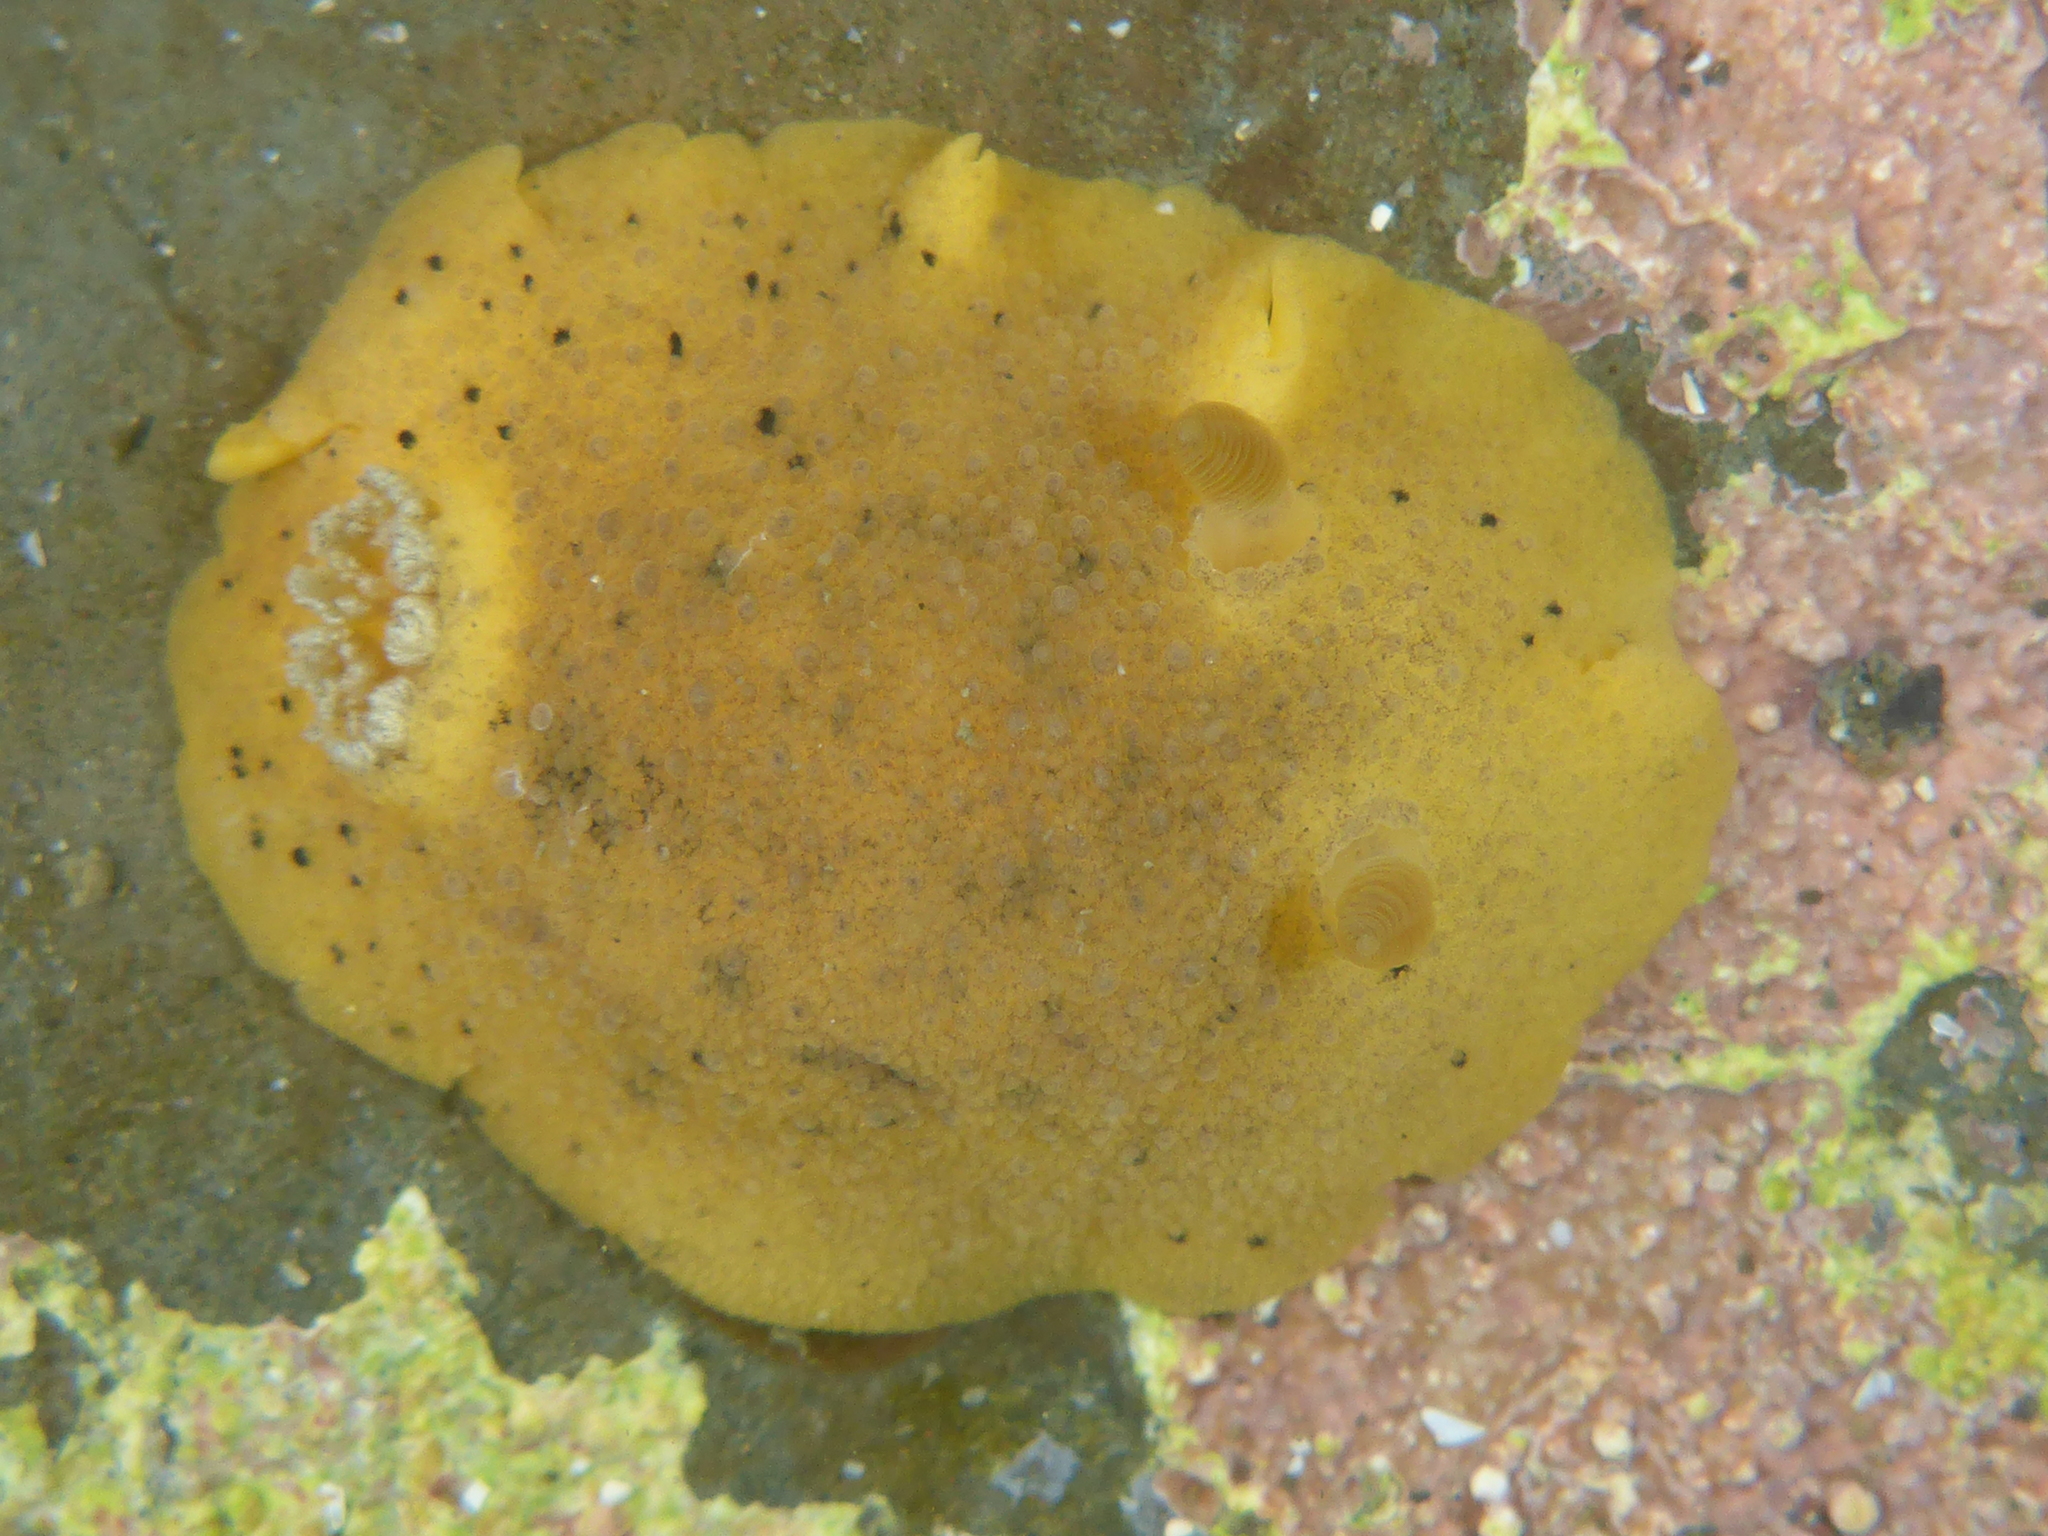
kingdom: Animalia
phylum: Mollusca
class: Gastropoda
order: Nudibranchia
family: Discodorididae
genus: Geitodoris
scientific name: Geitodoris heathi
